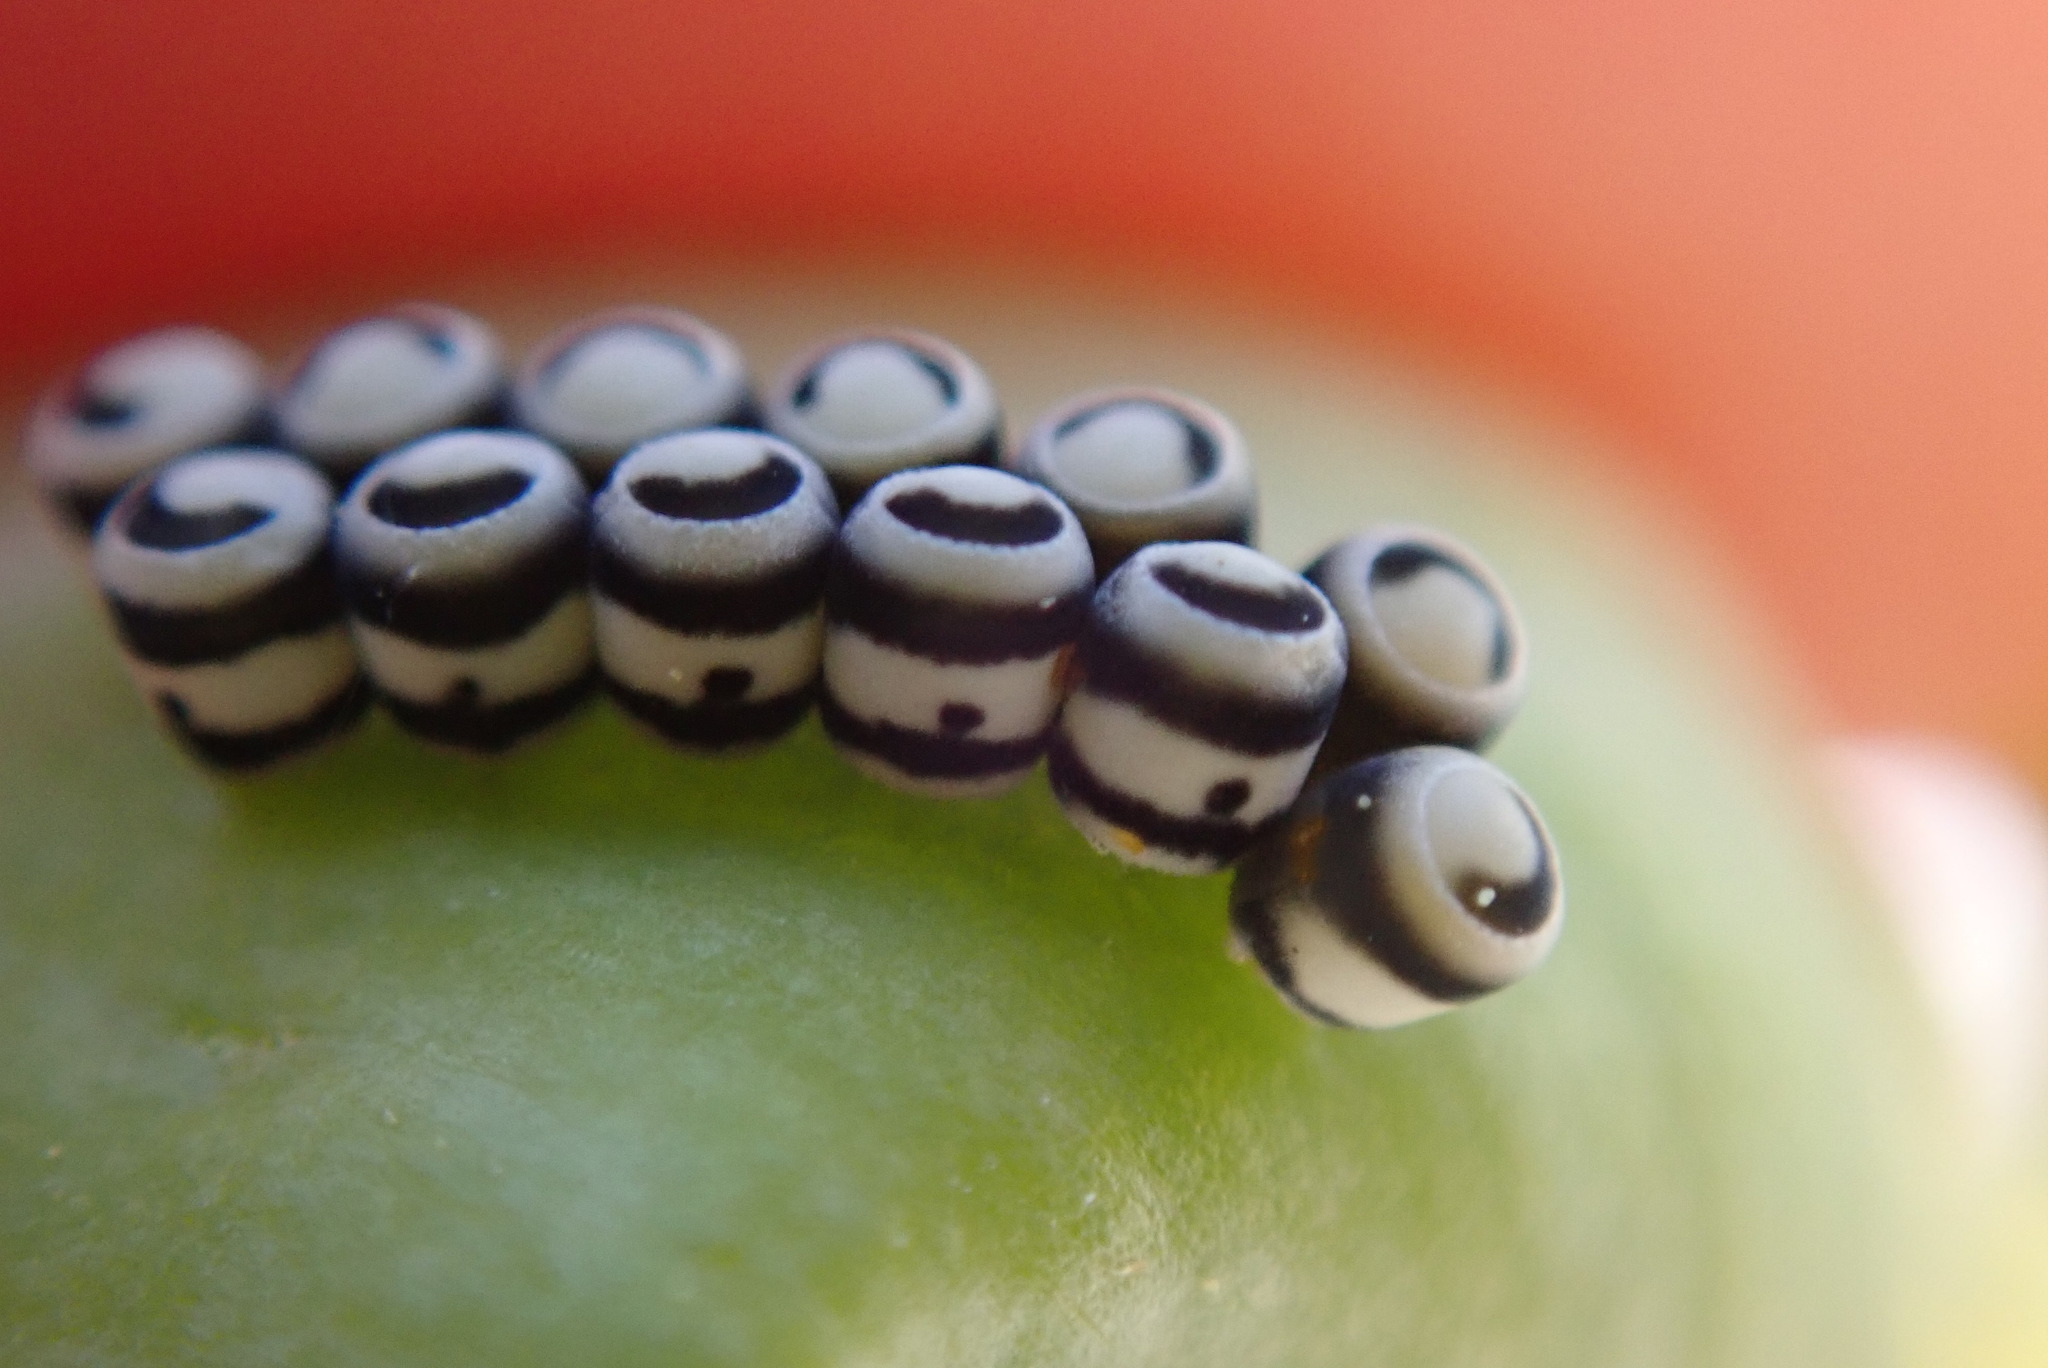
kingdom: Animalia
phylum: Arthropoda
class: Insecta
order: Hemiptera
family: Pentatomidae
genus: Murgantia
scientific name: Murgantia histrionica
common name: Harlequin bug
